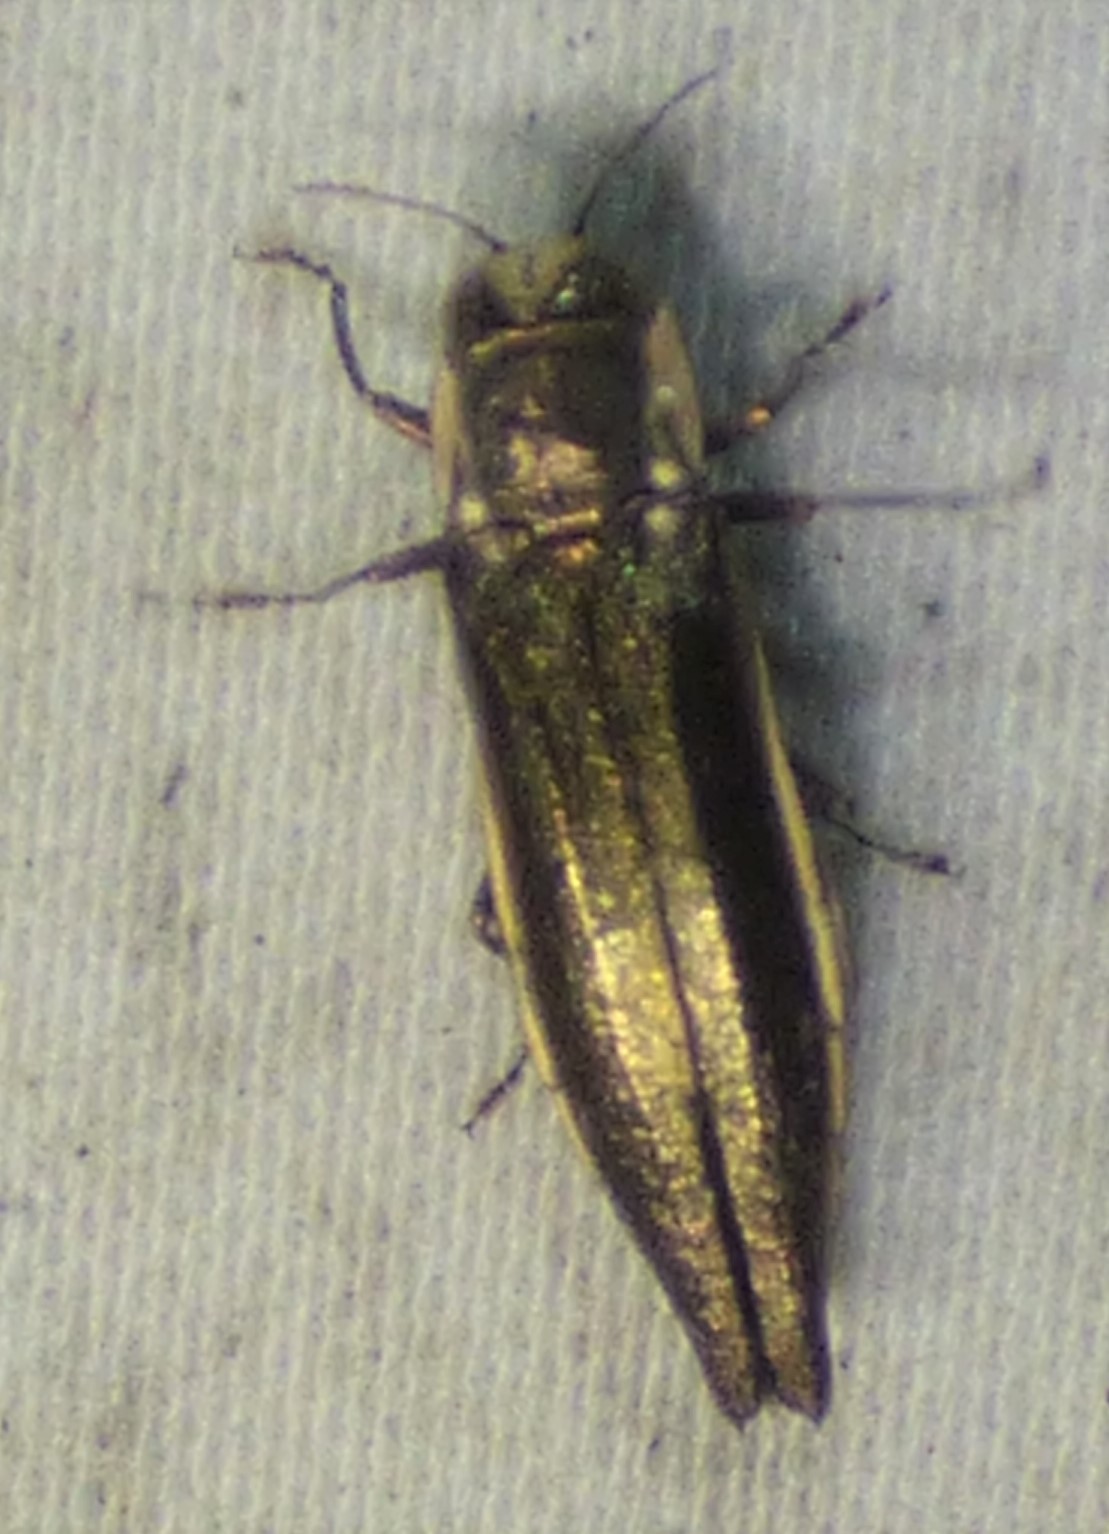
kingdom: Animalia
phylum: Arthropoda
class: Insecta
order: Coleoptera
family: Buprestidae
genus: Agrilus
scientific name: Agrilus ferrisi
